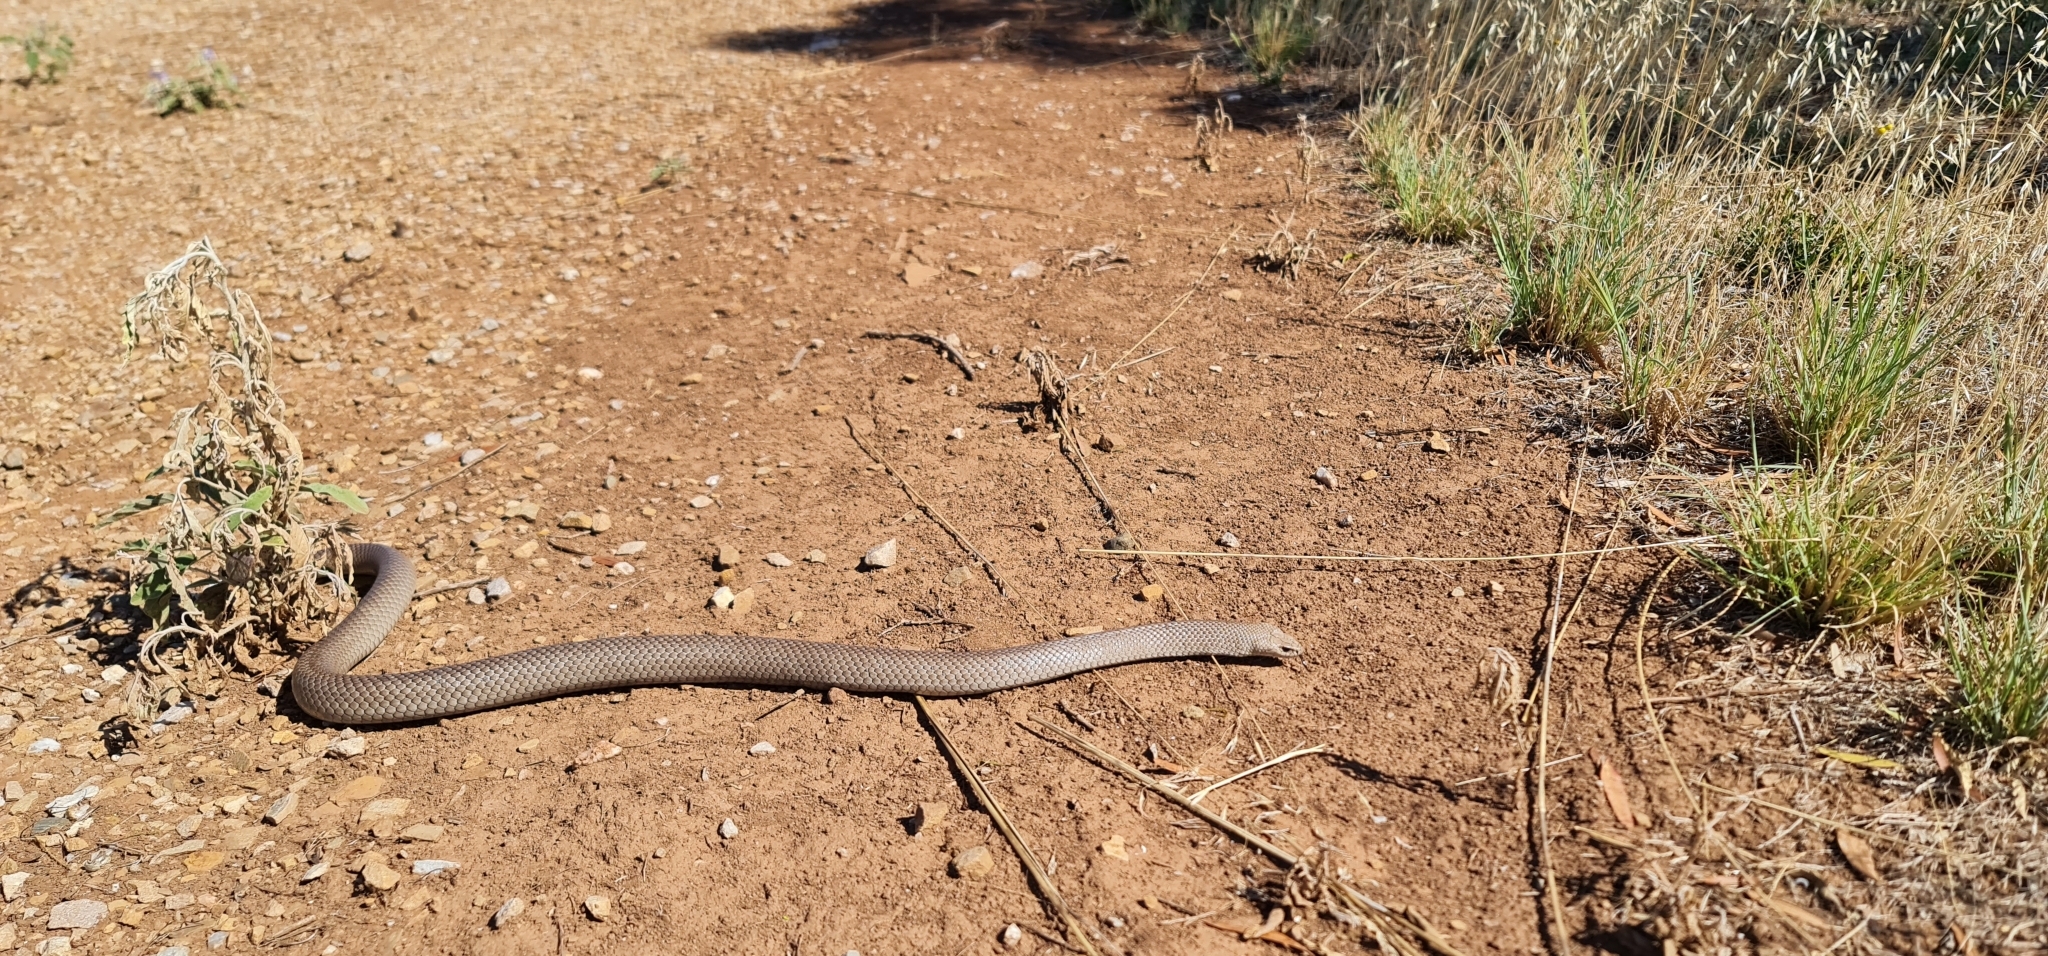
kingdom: Animalia
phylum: Chordata
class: Squamata
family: Elapidae
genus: Pseudonaja
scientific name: Pseudonaja textilis
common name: Eastern brown snake
